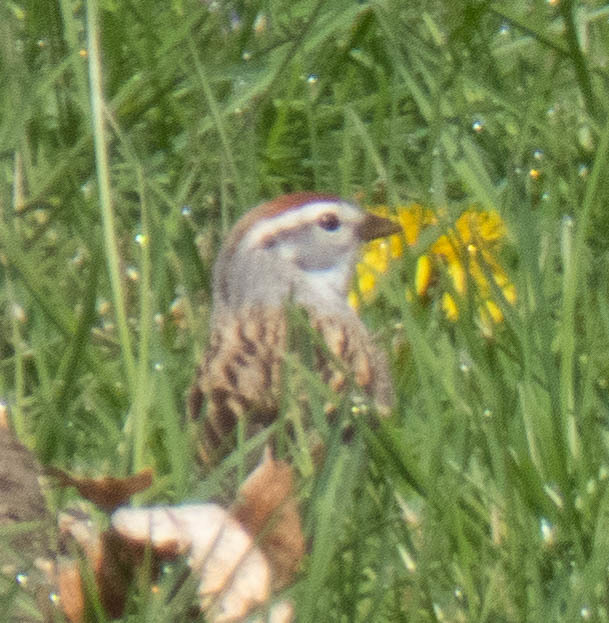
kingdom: Animalia
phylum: Chordata
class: Aves
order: Passeriformes
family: Passerellidae
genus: Spizella
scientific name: Spizella passerina
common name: Chipping sparrow
